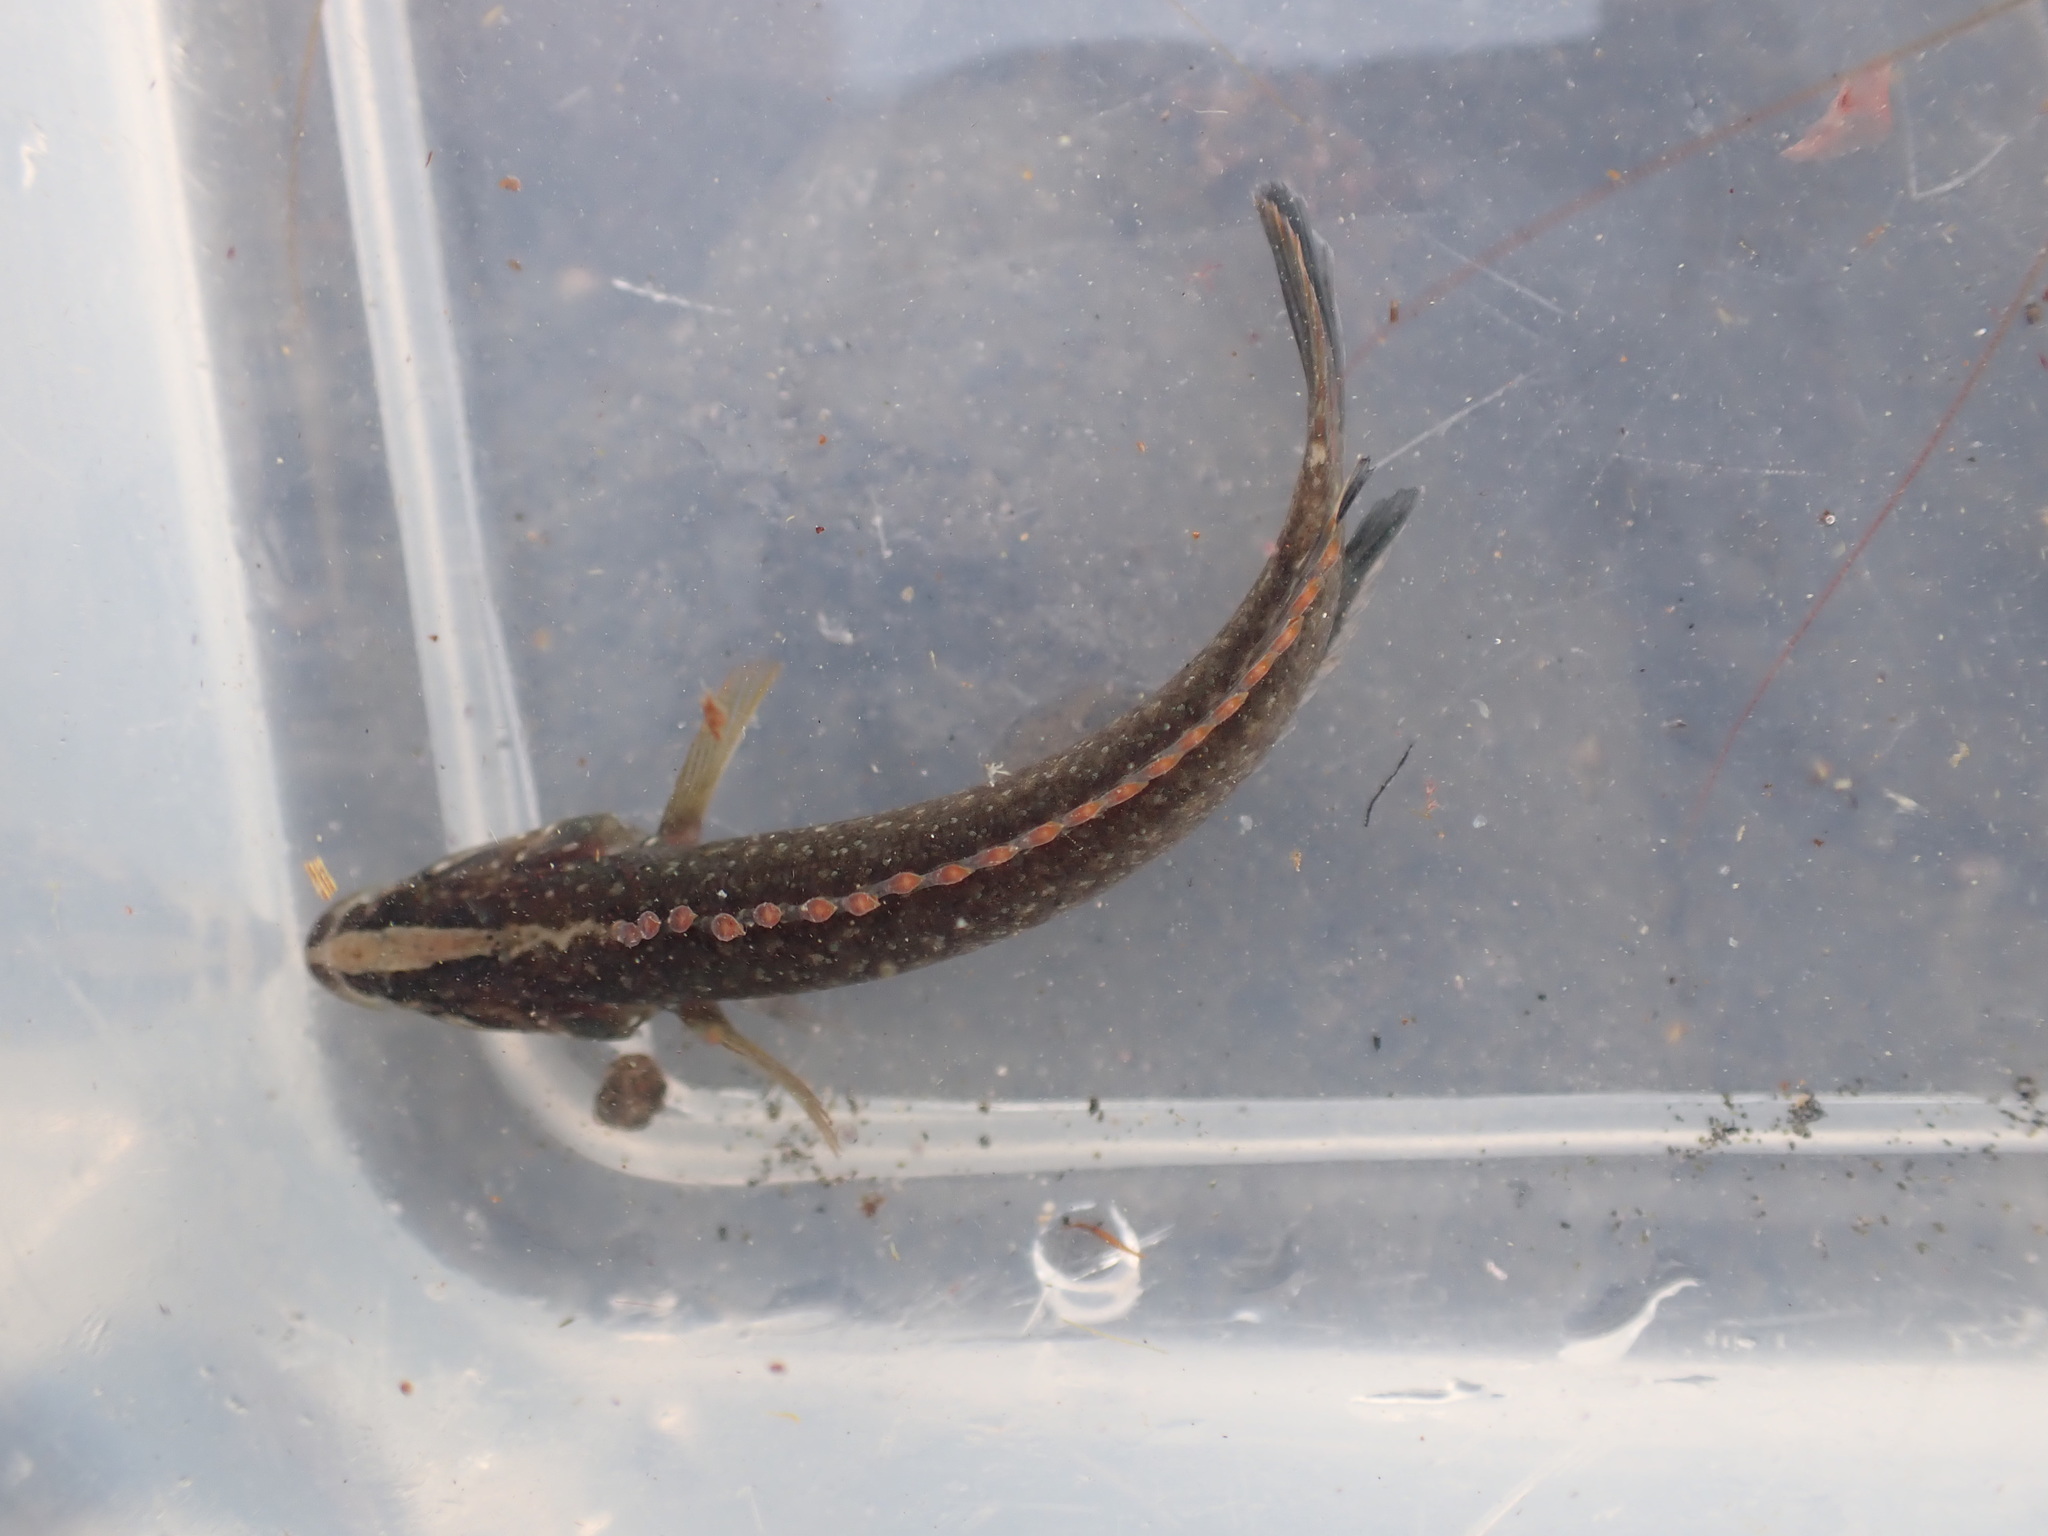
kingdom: Animalia
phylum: Chordata
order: Perciformes
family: Plesiopidae
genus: Acanthoclinus
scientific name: Acanthoclinus fuscus
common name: Olive rockfish
